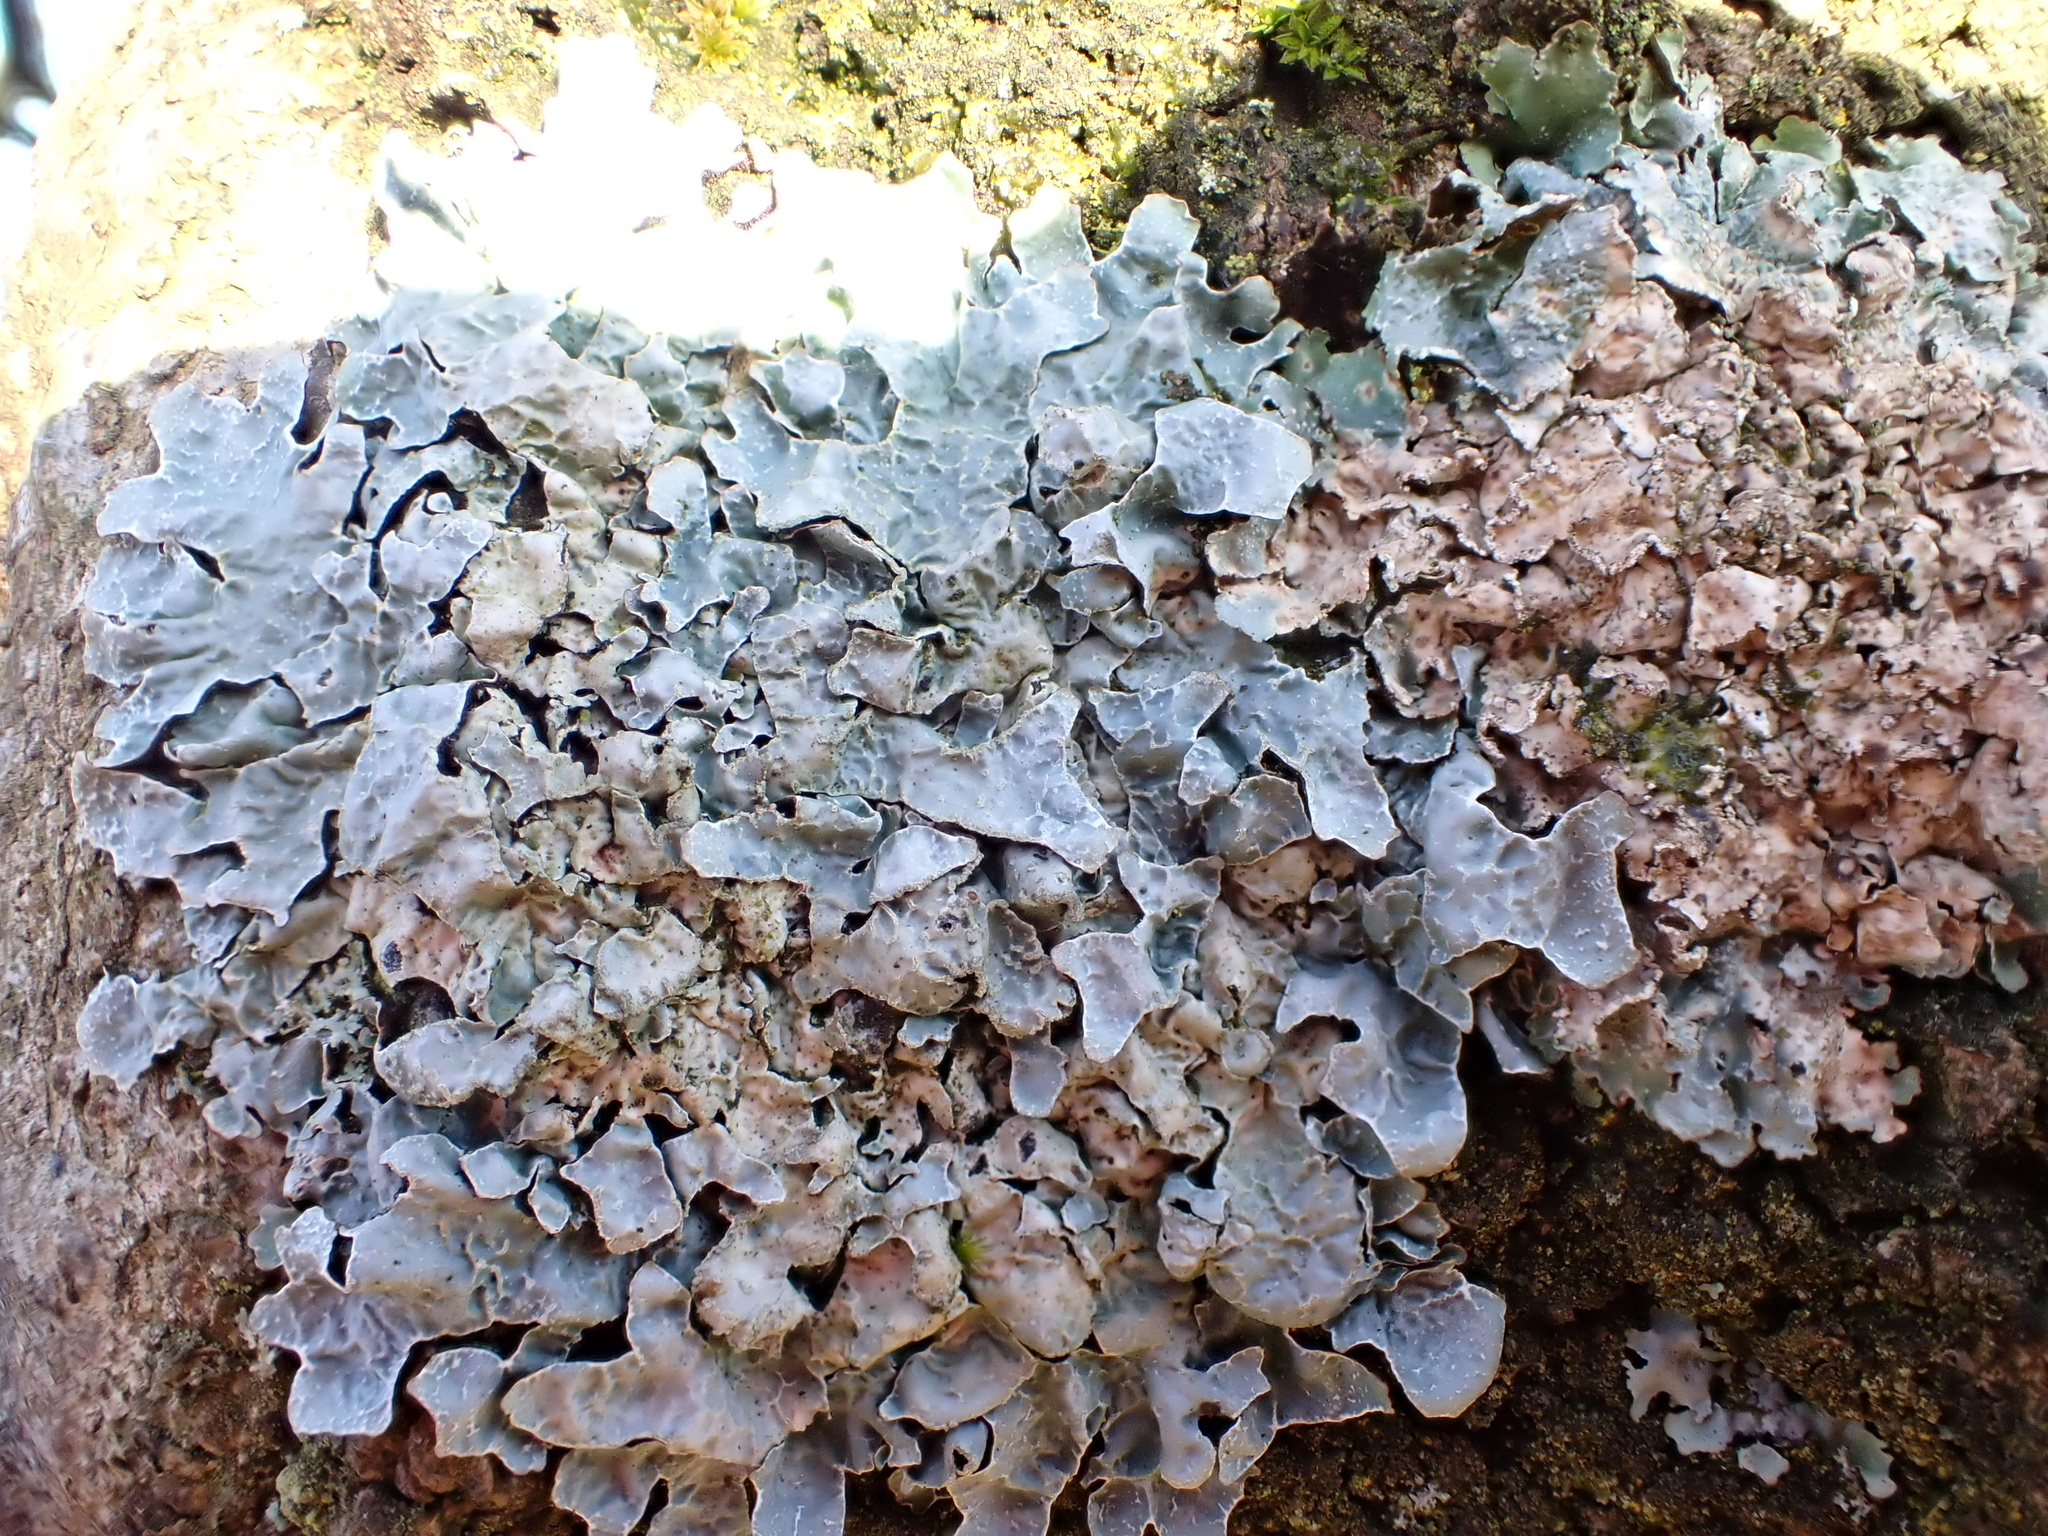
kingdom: Fungi
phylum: Ascomycota
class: Lecanoromycetes
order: Lecanorales
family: Parmeliaceae
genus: Parmelia
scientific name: Parmelia sulcata
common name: Netted shield lichen
